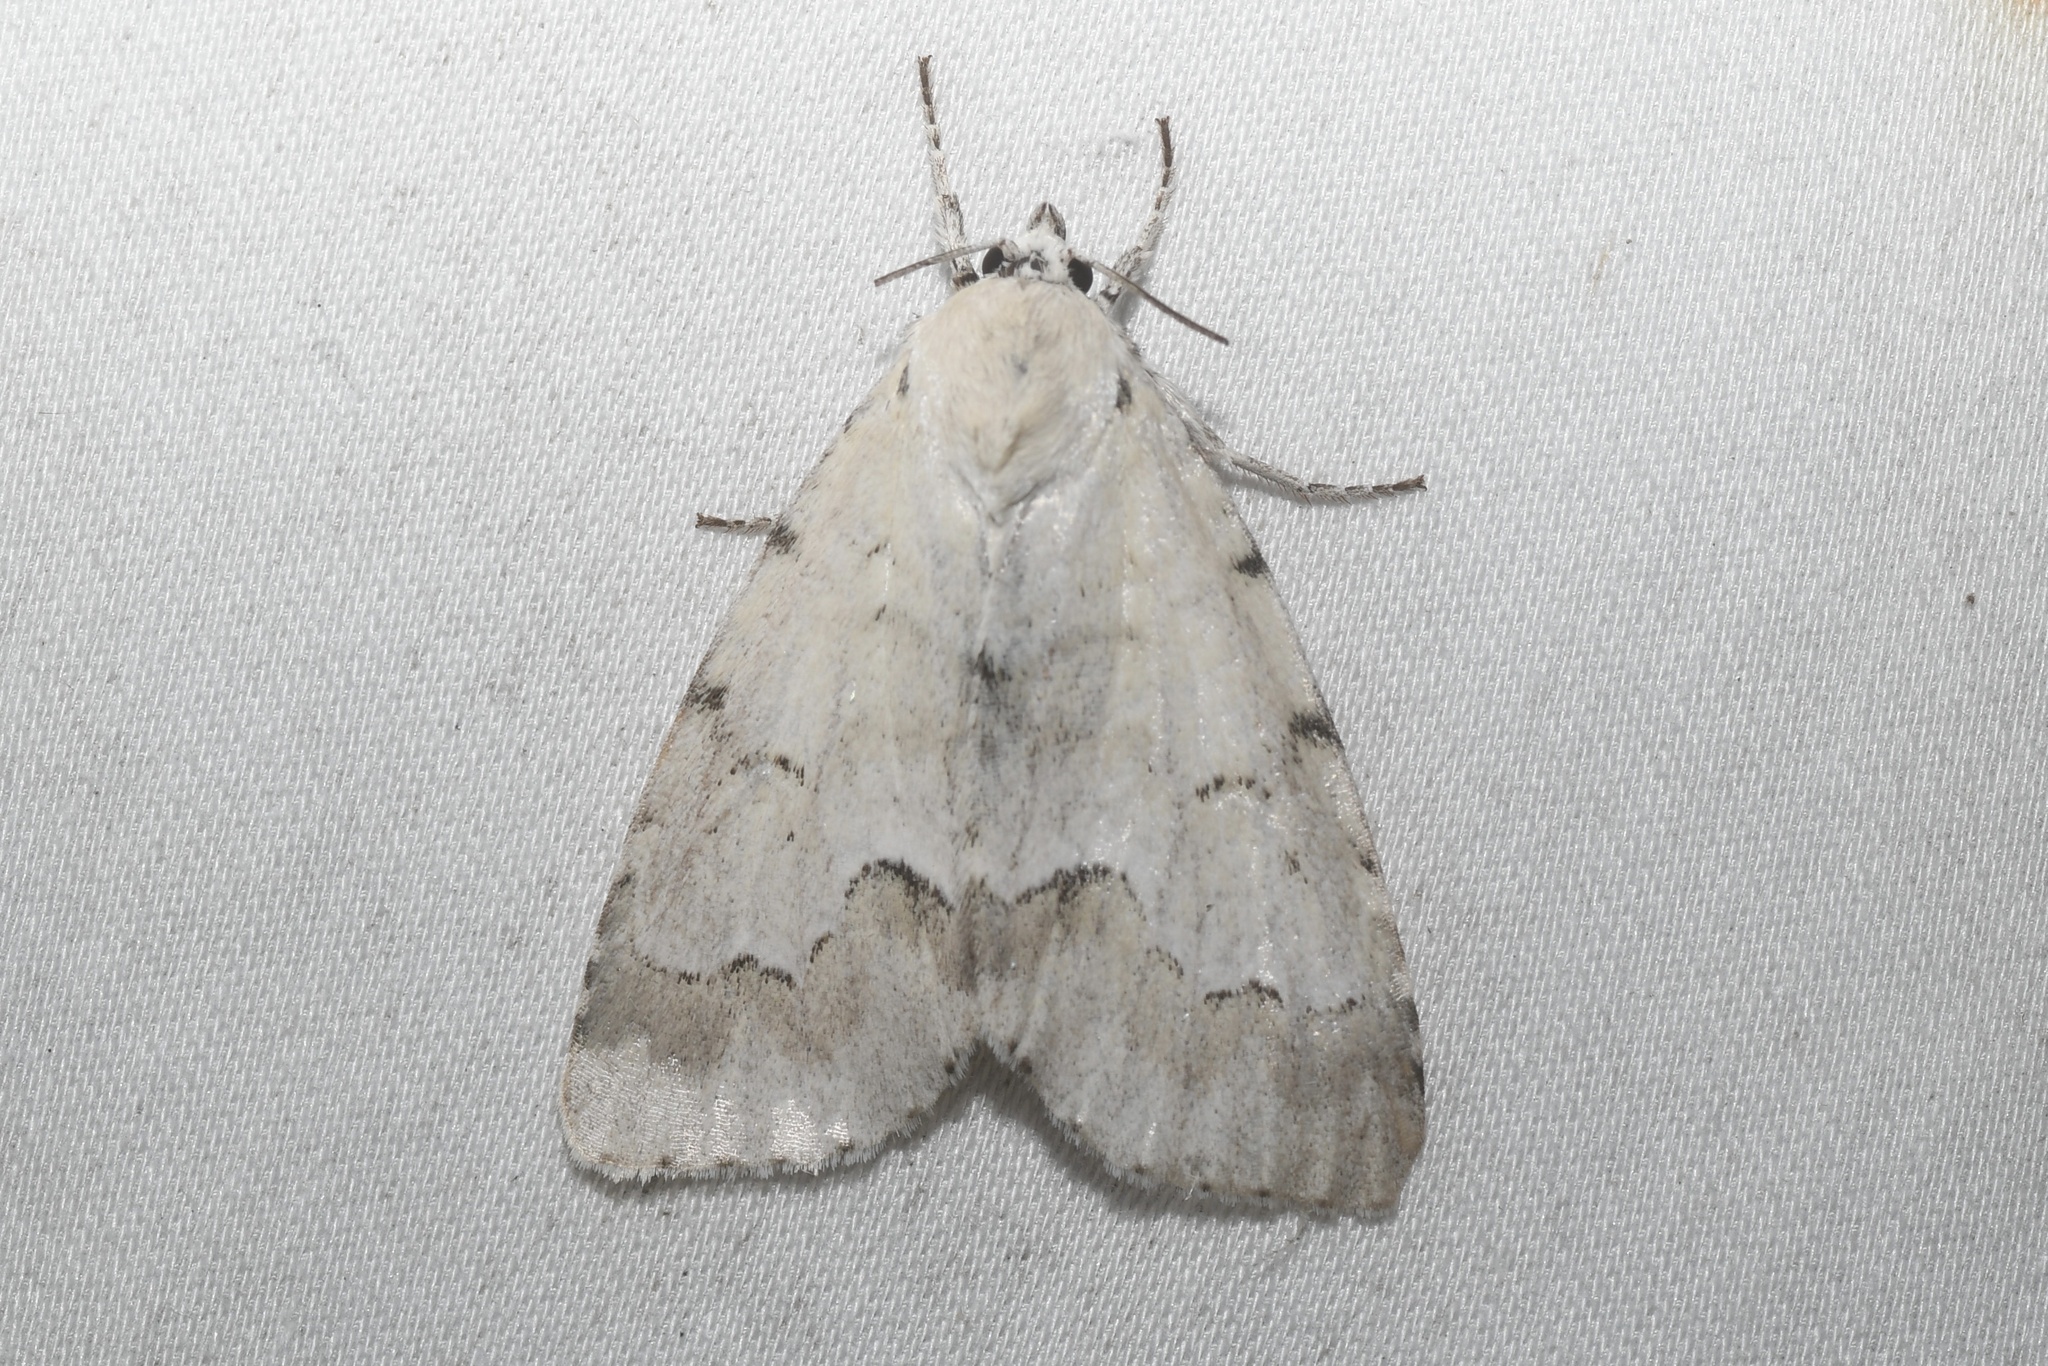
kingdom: Animalia
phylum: Arthropoda
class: Insecta
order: Lepidoptera
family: Noctuidae
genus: Acronicta
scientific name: Acronicta innotata
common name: Unmarked dagger
